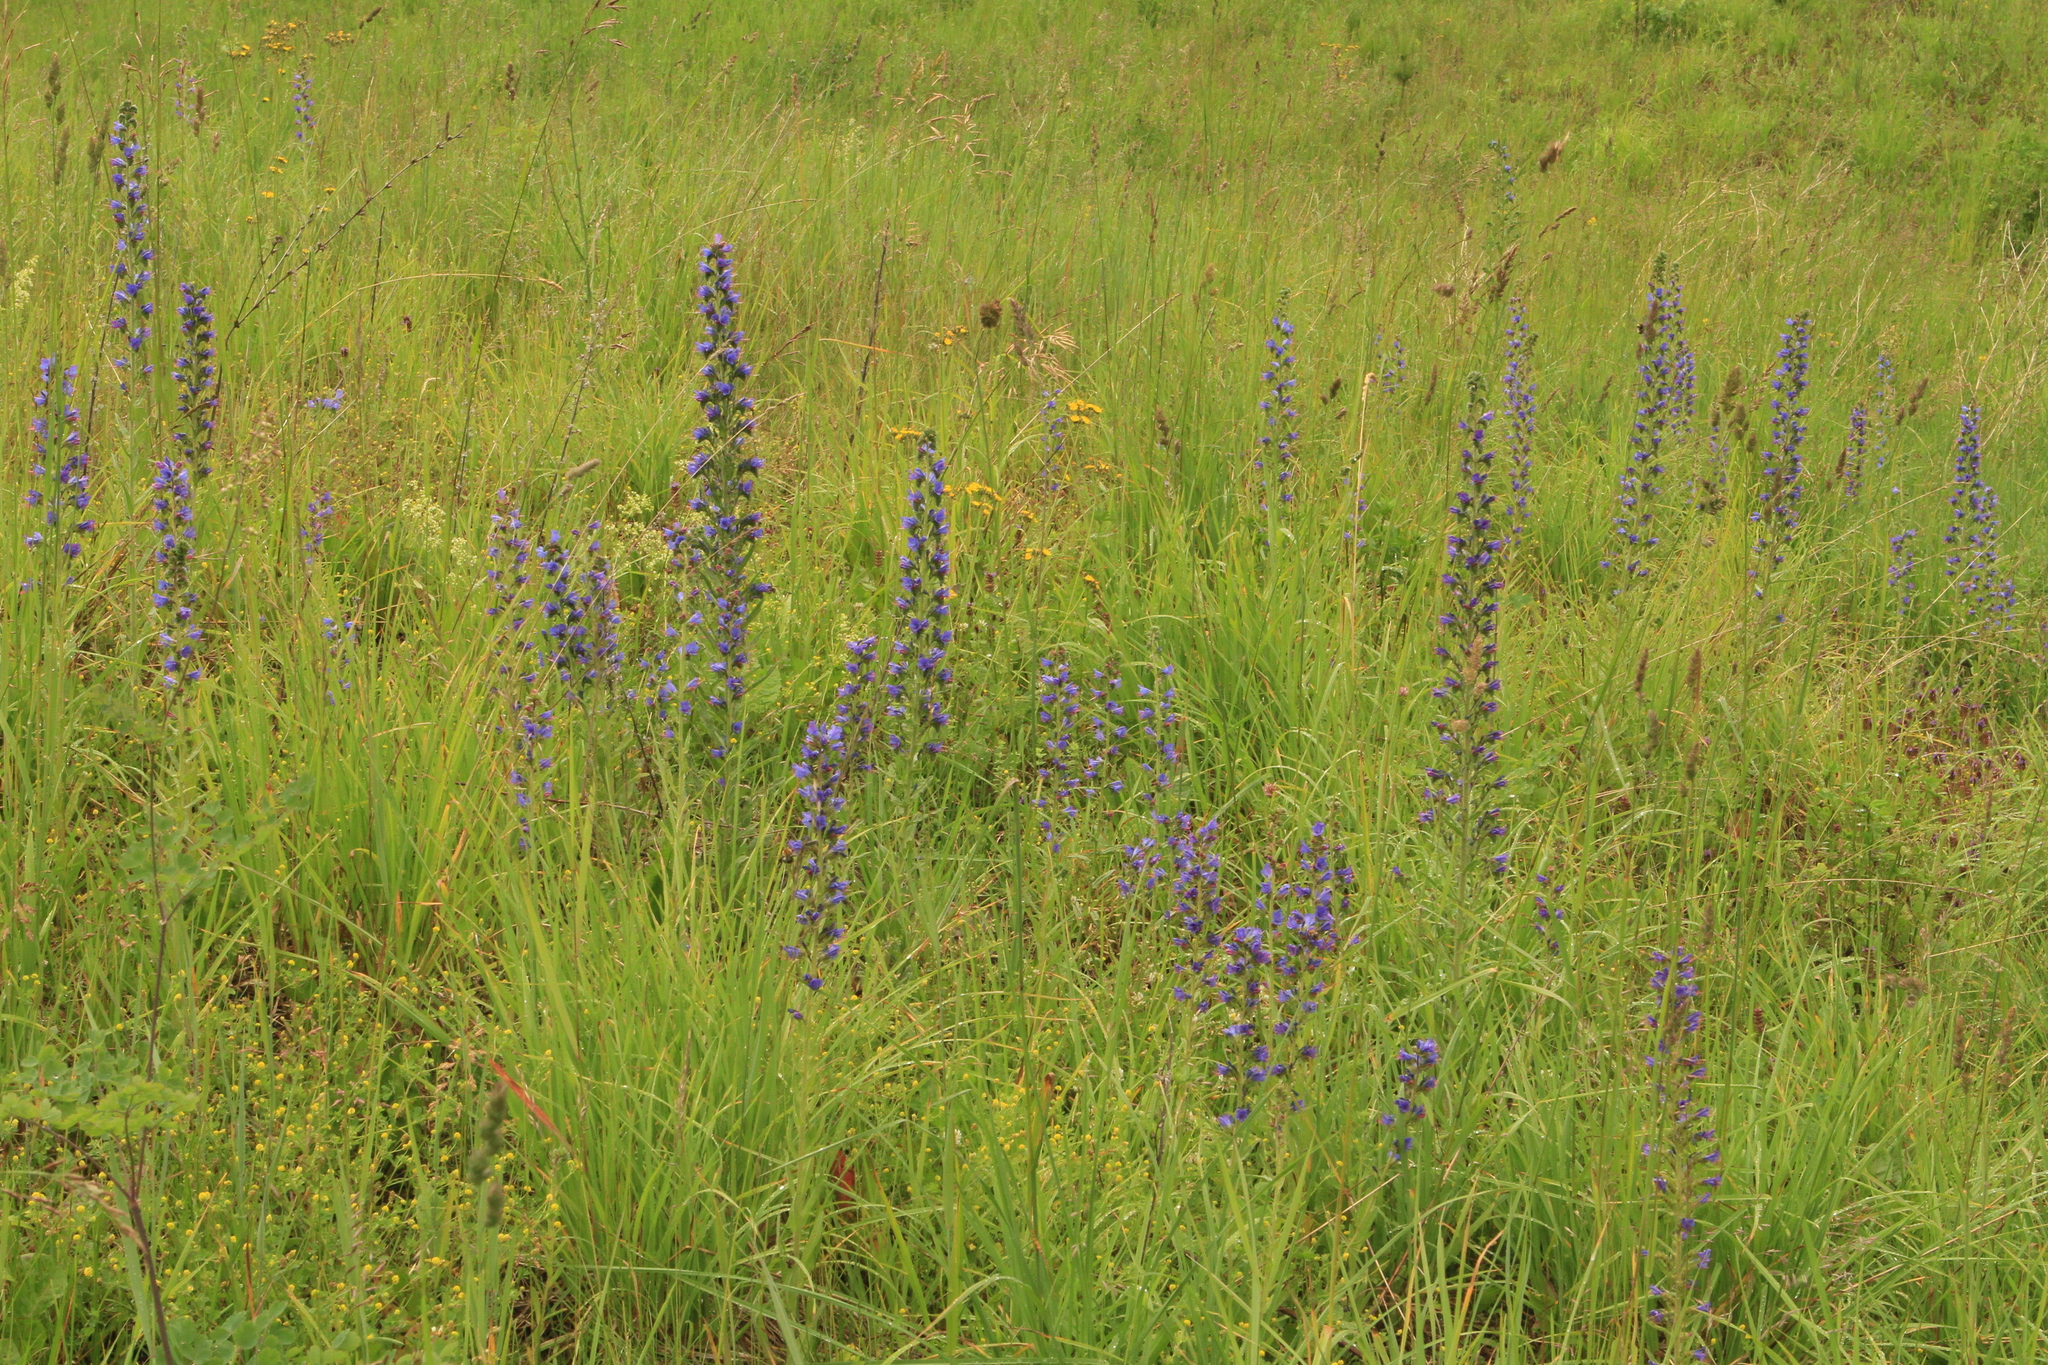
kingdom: Plantae
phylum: Tracheophyta
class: Magnoliopsida
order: Boraginales
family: Boraginaceae
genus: Echium
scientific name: Echium vulgare
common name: Common viper's bugloss
